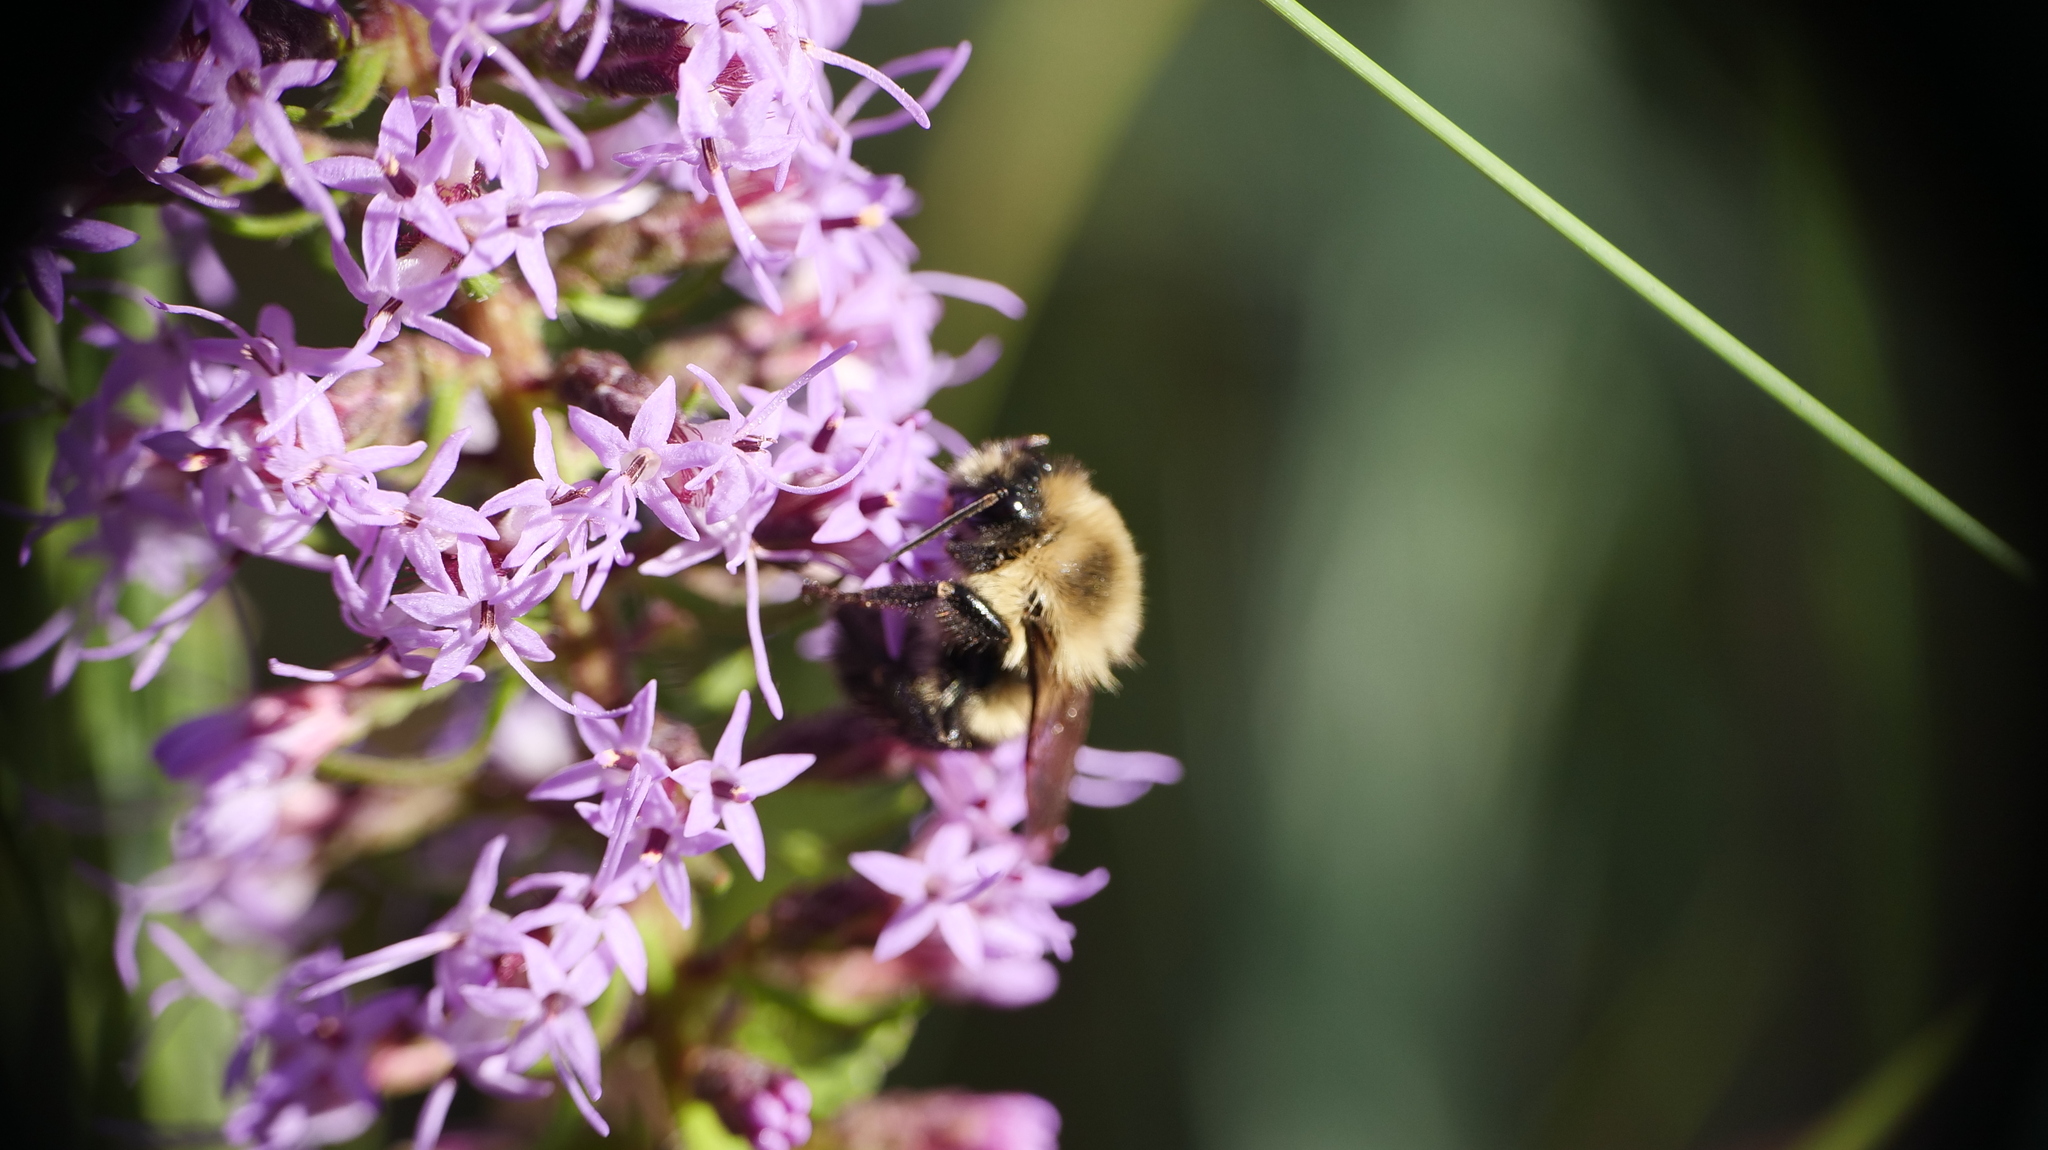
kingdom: Animalia
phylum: Arthropoda
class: Insecta
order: Hymenoptera
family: Apidae
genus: Bombus
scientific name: Bombus impatiens
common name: Common eastern bumble bee
